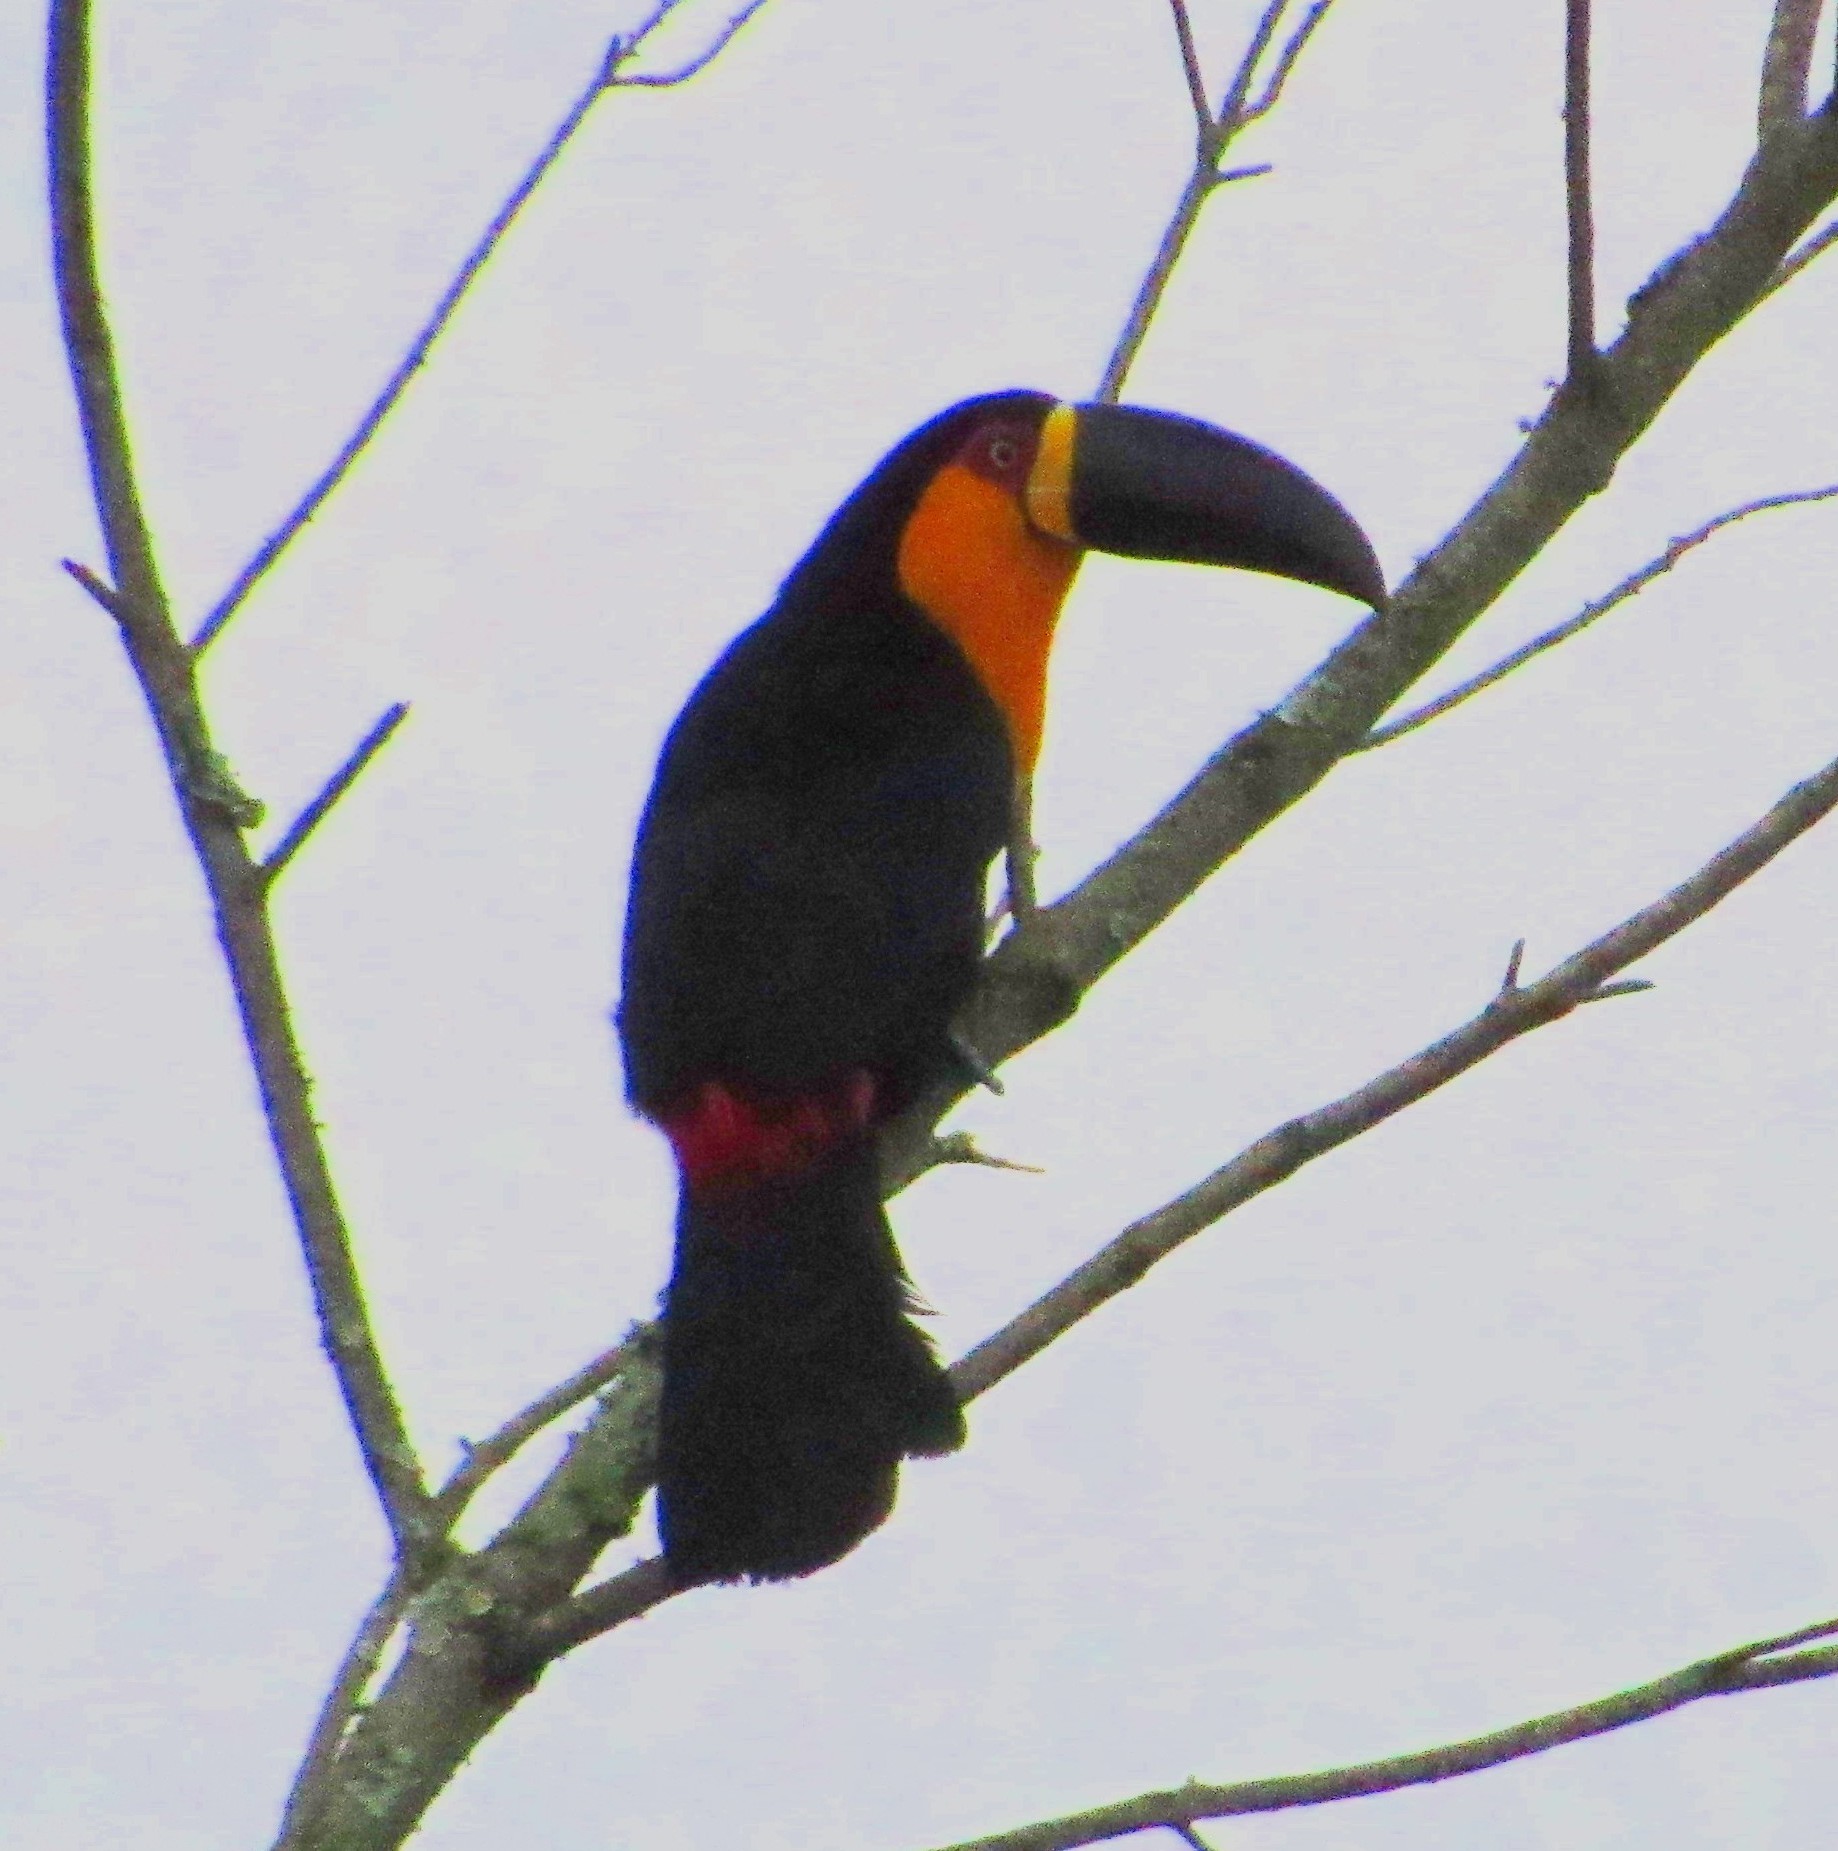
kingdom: Animalia
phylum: Chordata
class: Aves
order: Piciformes
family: Ramphastidae
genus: Ramphastos
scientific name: Ramphastos vitellinus
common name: Channel-billed toucan
